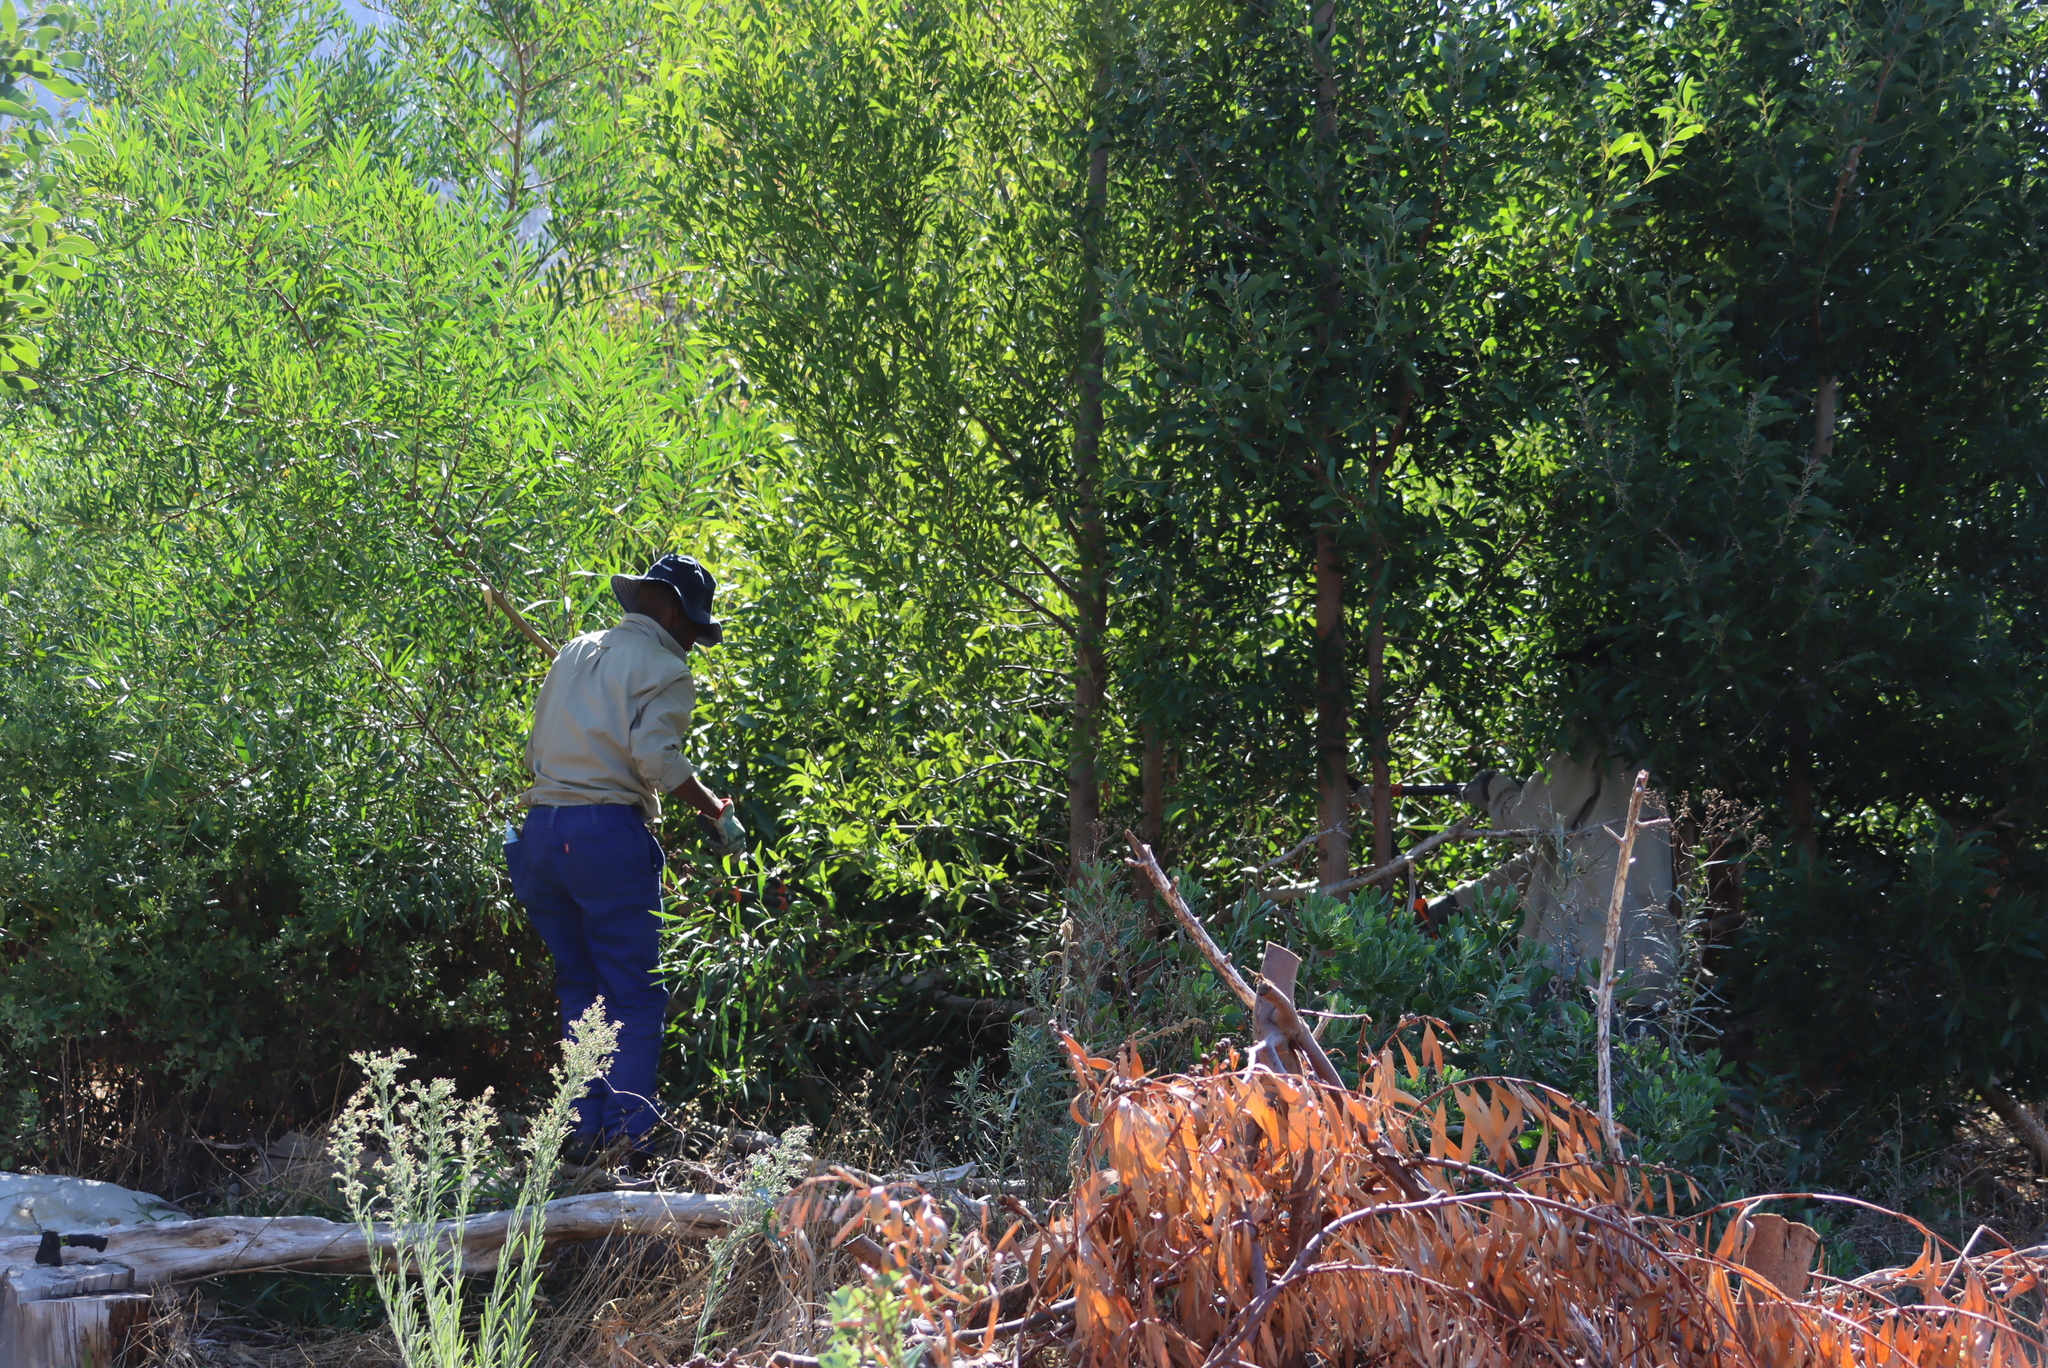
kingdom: Plantae
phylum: Tracheophyta
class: Magnoliopsida
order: Fabales
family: Fabaceae
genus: Acacia
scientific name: Acacia longifolia
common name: Sydney golden wattle
